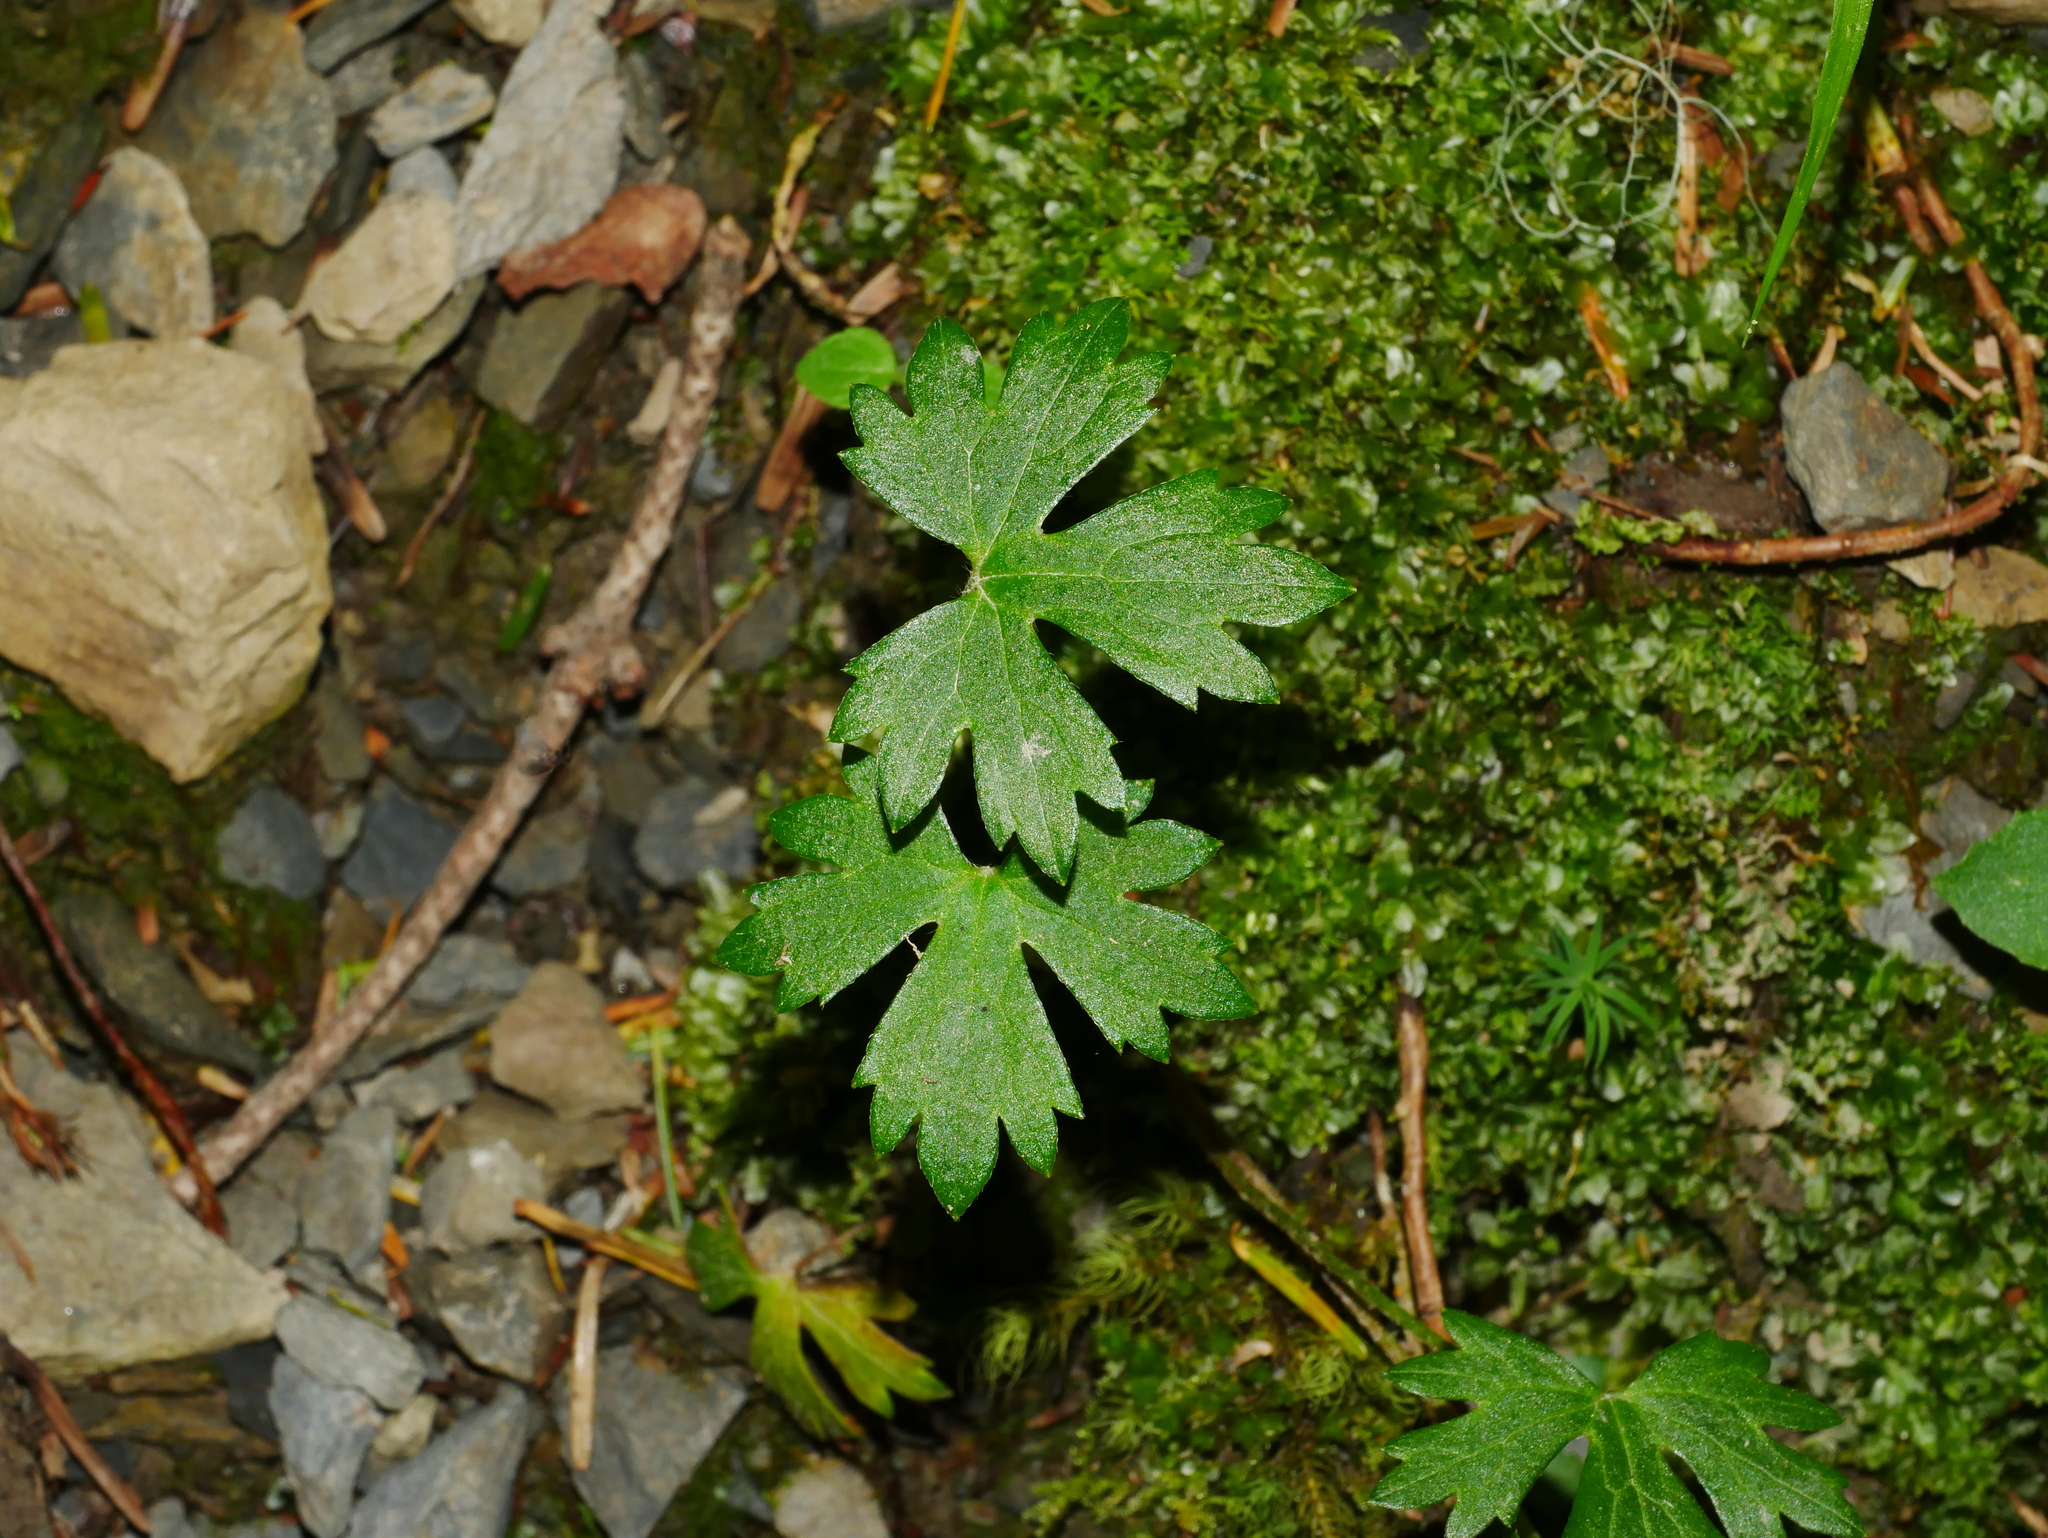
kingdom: Plantae
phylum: Tracheophyta
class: Magnoliopsida
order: Ranunculales
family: Ranunculaceae
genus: Ranunculus
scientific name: Ranunculus formosa-montanus
